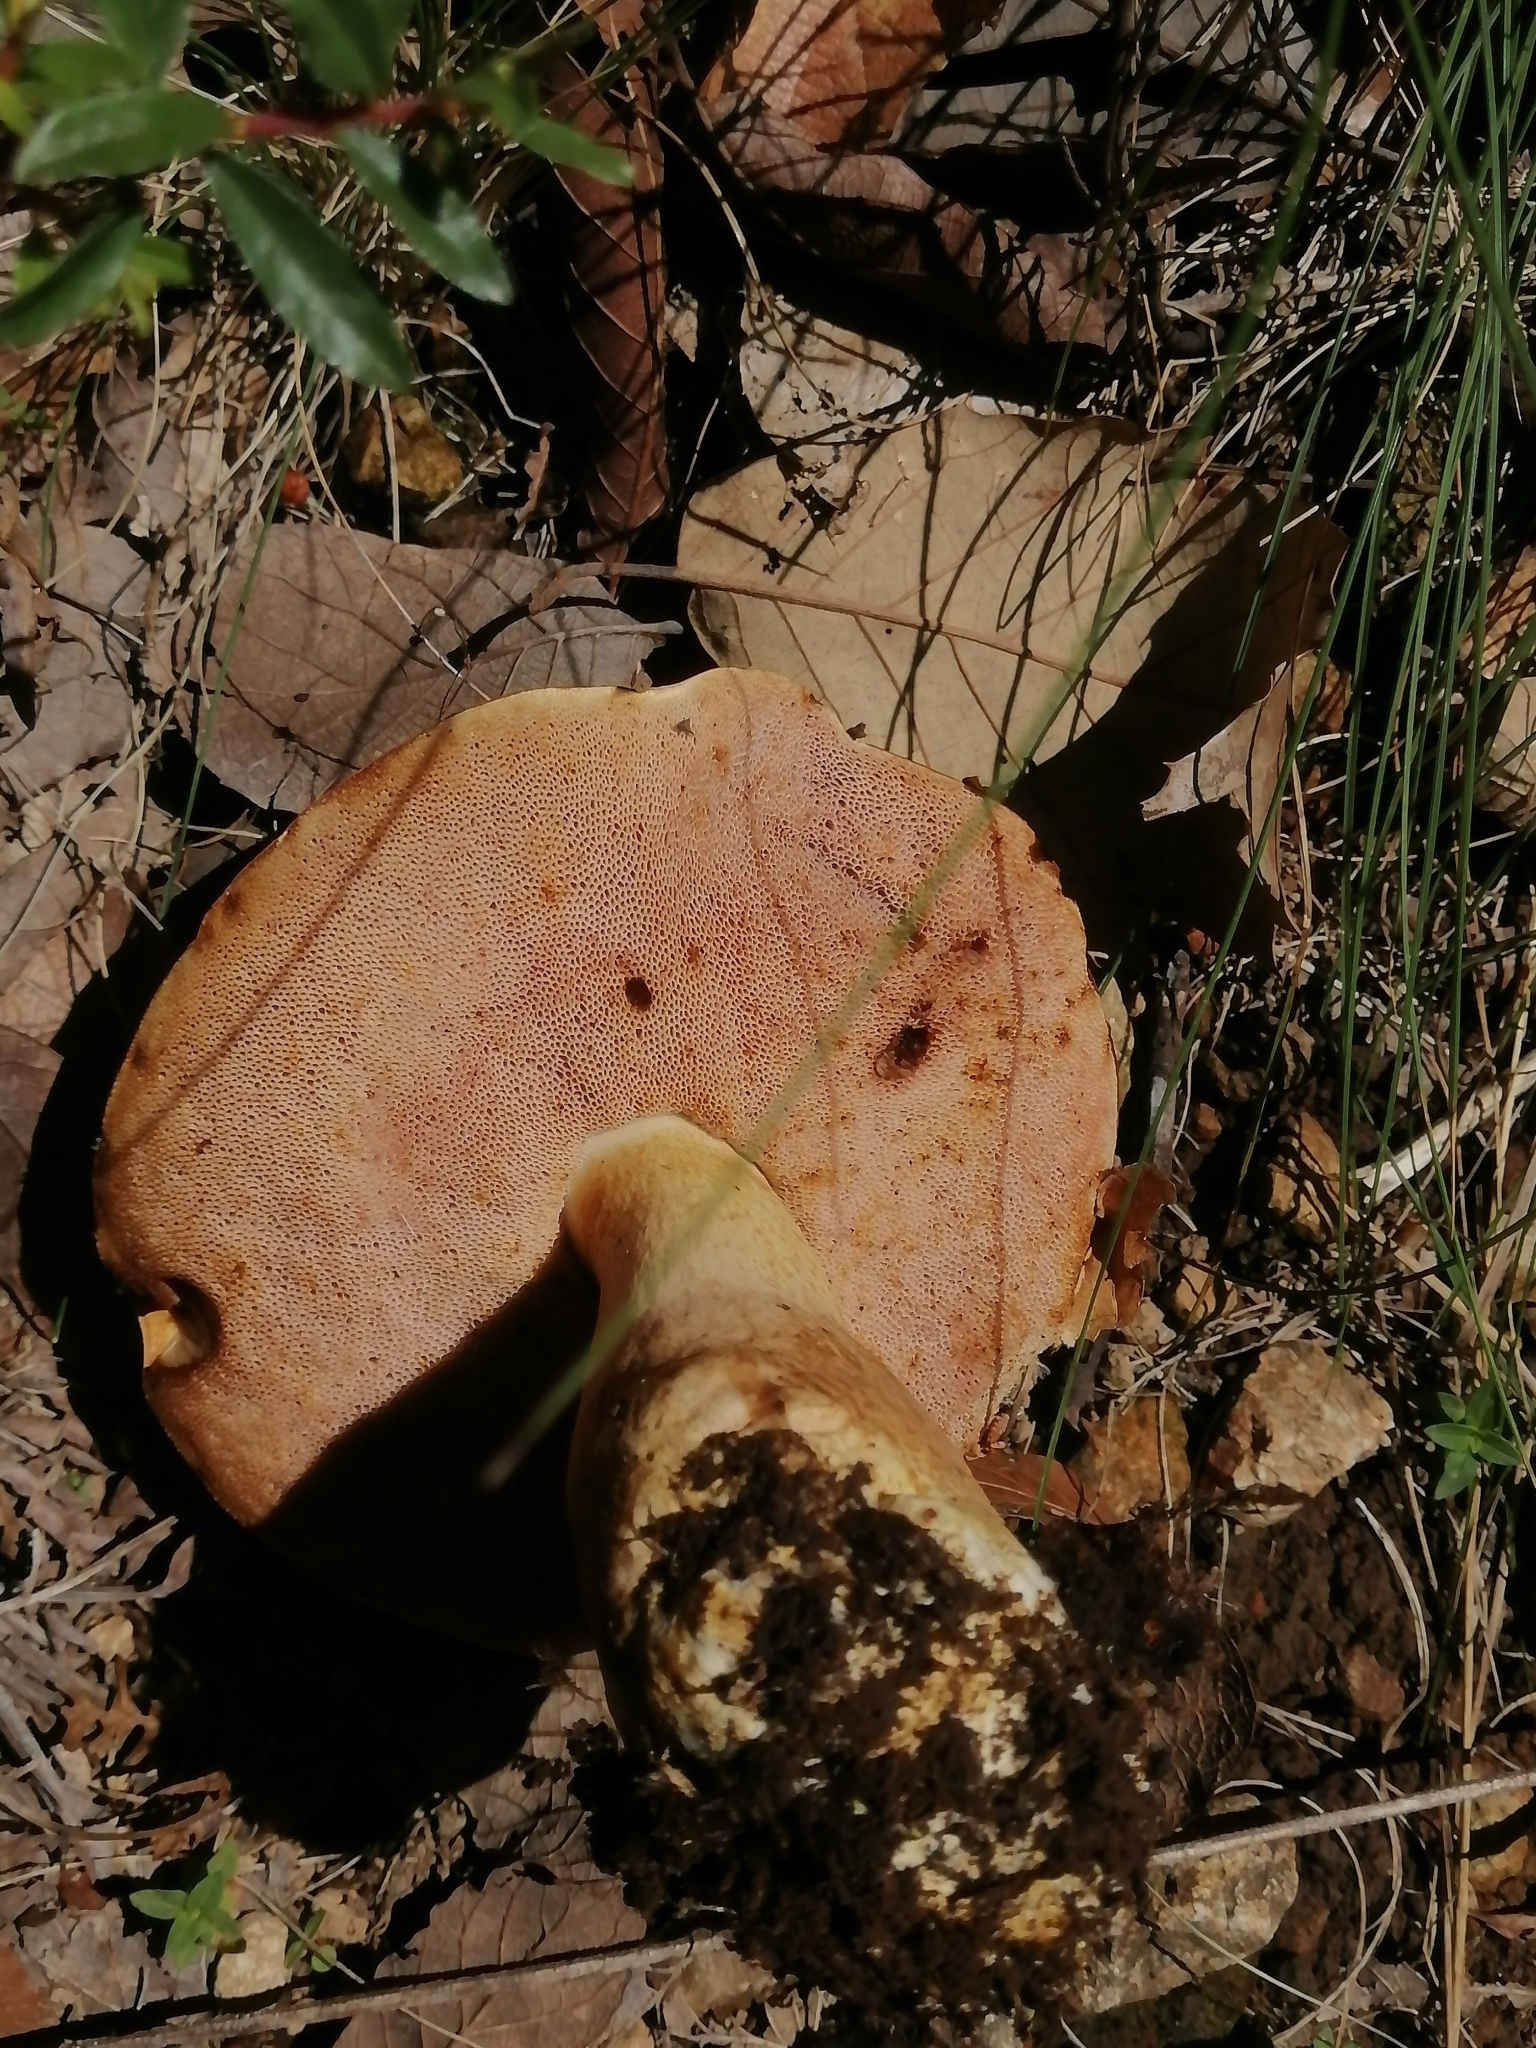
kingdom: Fungi
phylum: Basidiomycota
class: Agaricomycetes
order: Boletales
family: Boletaceae
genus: Fistulinella
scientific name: Fistulinella wolfeana
